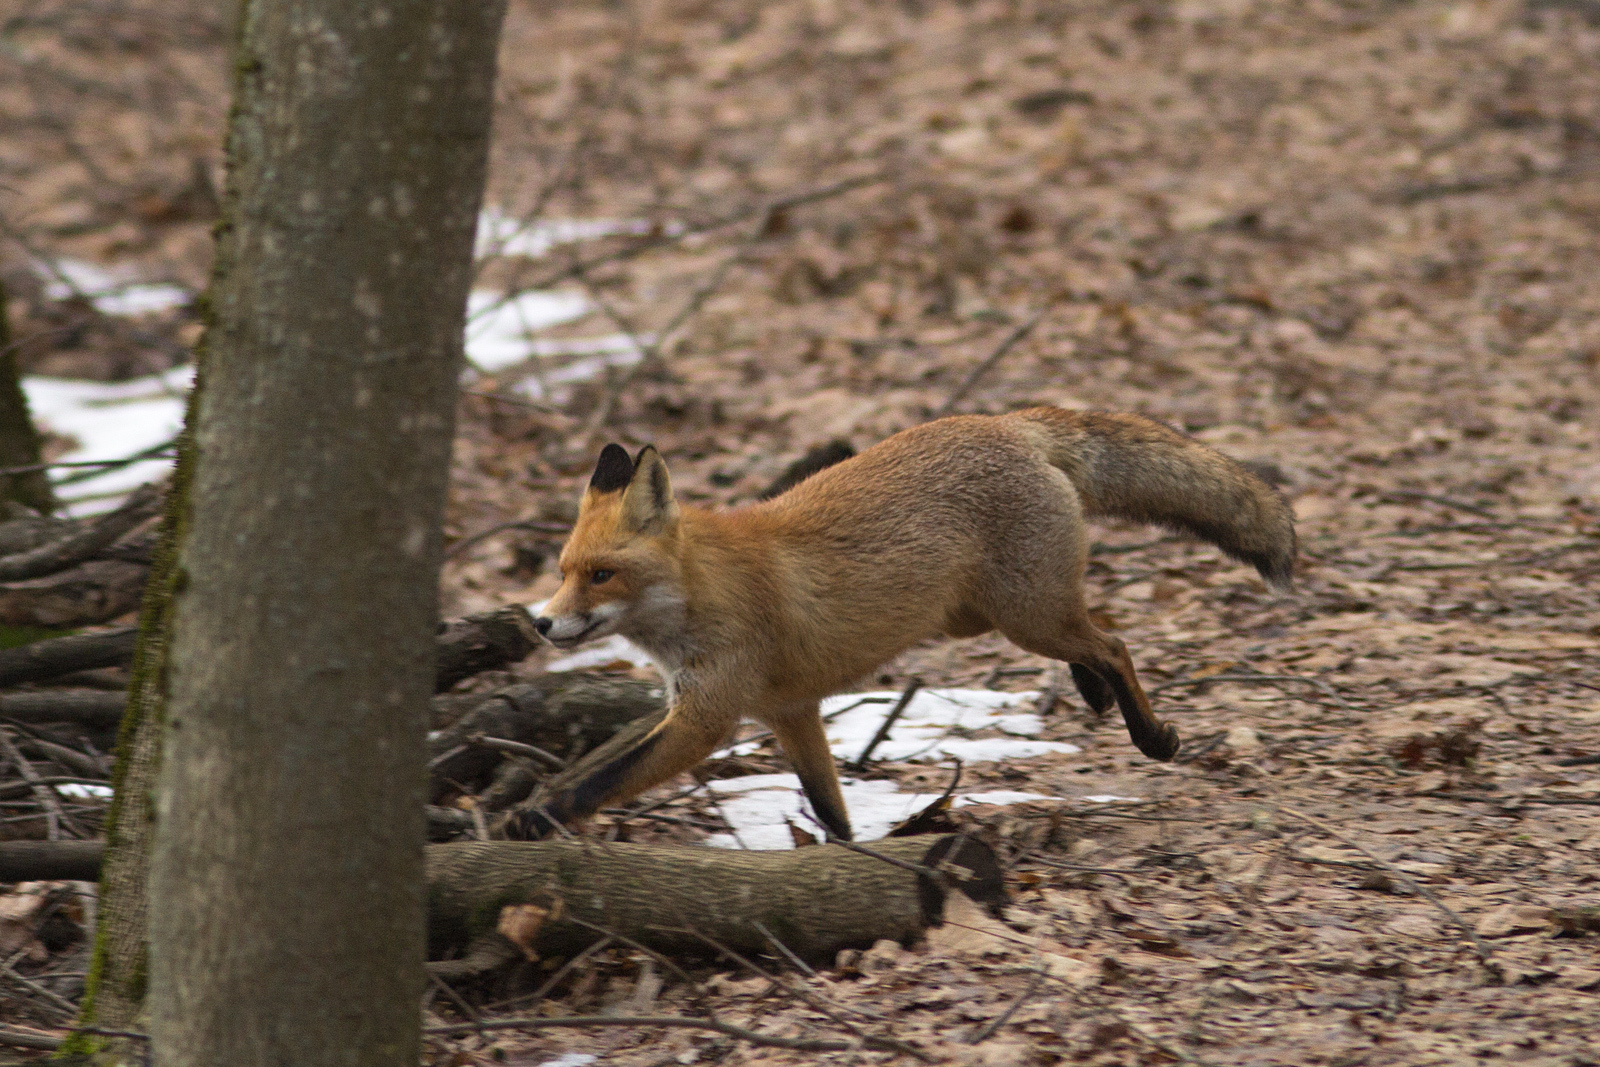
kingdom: Animalia
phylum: Chordata
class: Mammalia
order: Carnivora
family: Canidae
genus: Vulpes
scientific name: Vulpes vulpes
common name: Red fox
